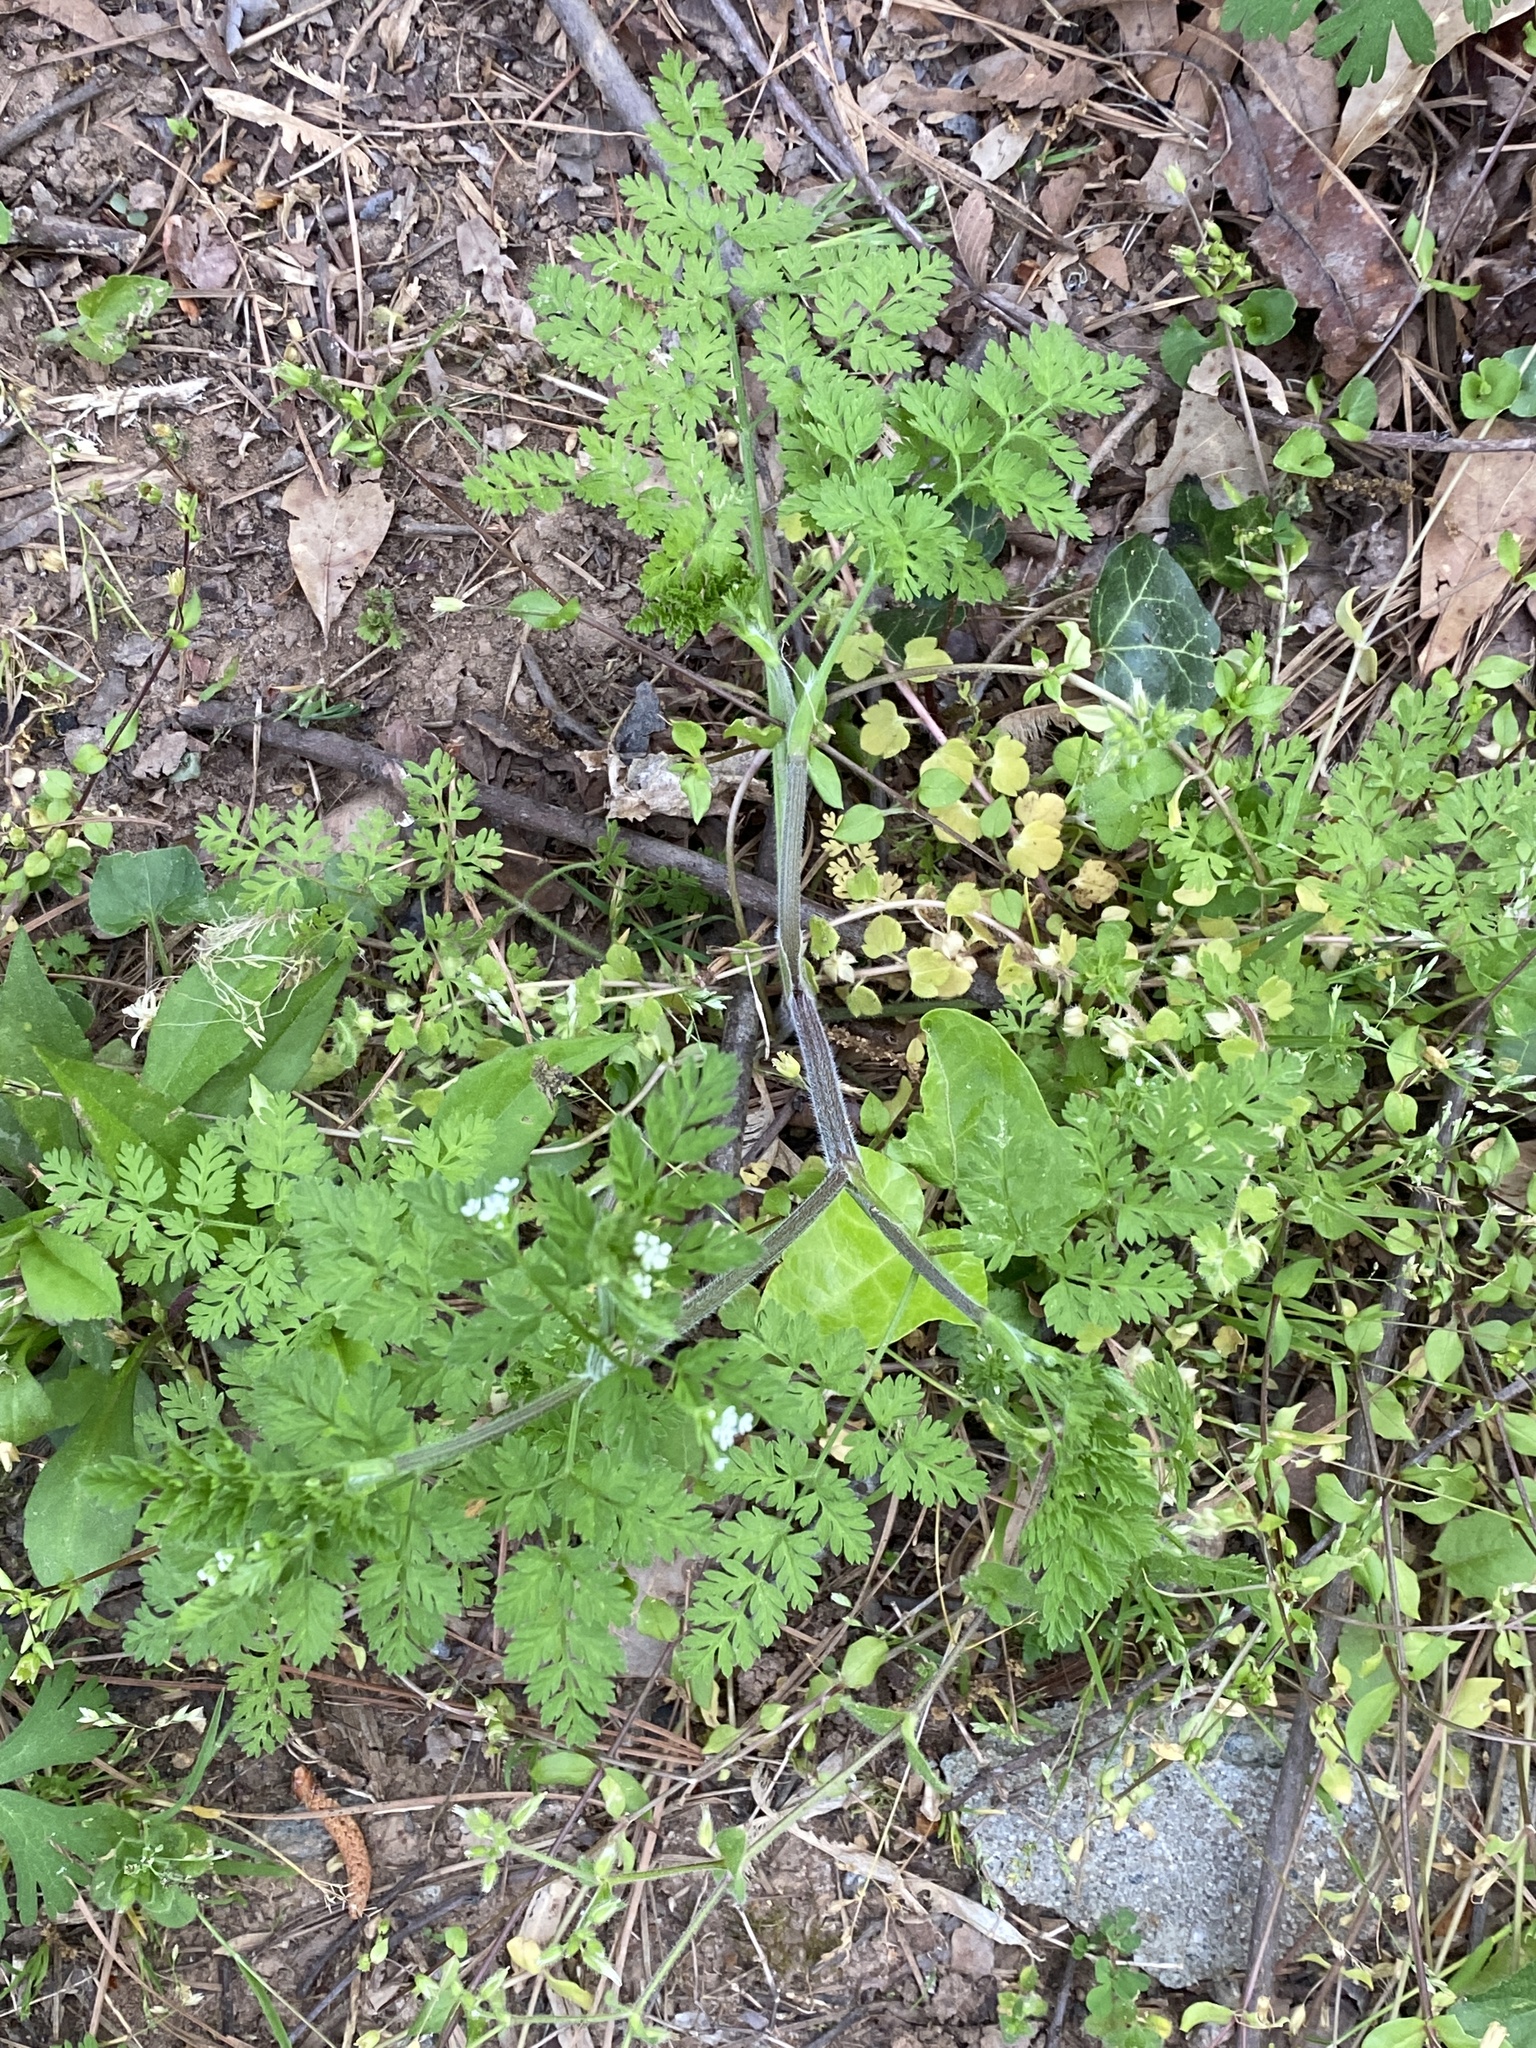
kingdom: Plantae
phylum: Tracheophyta
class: Magnoliopsida
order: Apiales
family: Apiaceae
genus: Chaerophyllum
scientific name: Chaerophyllum tainturieri
